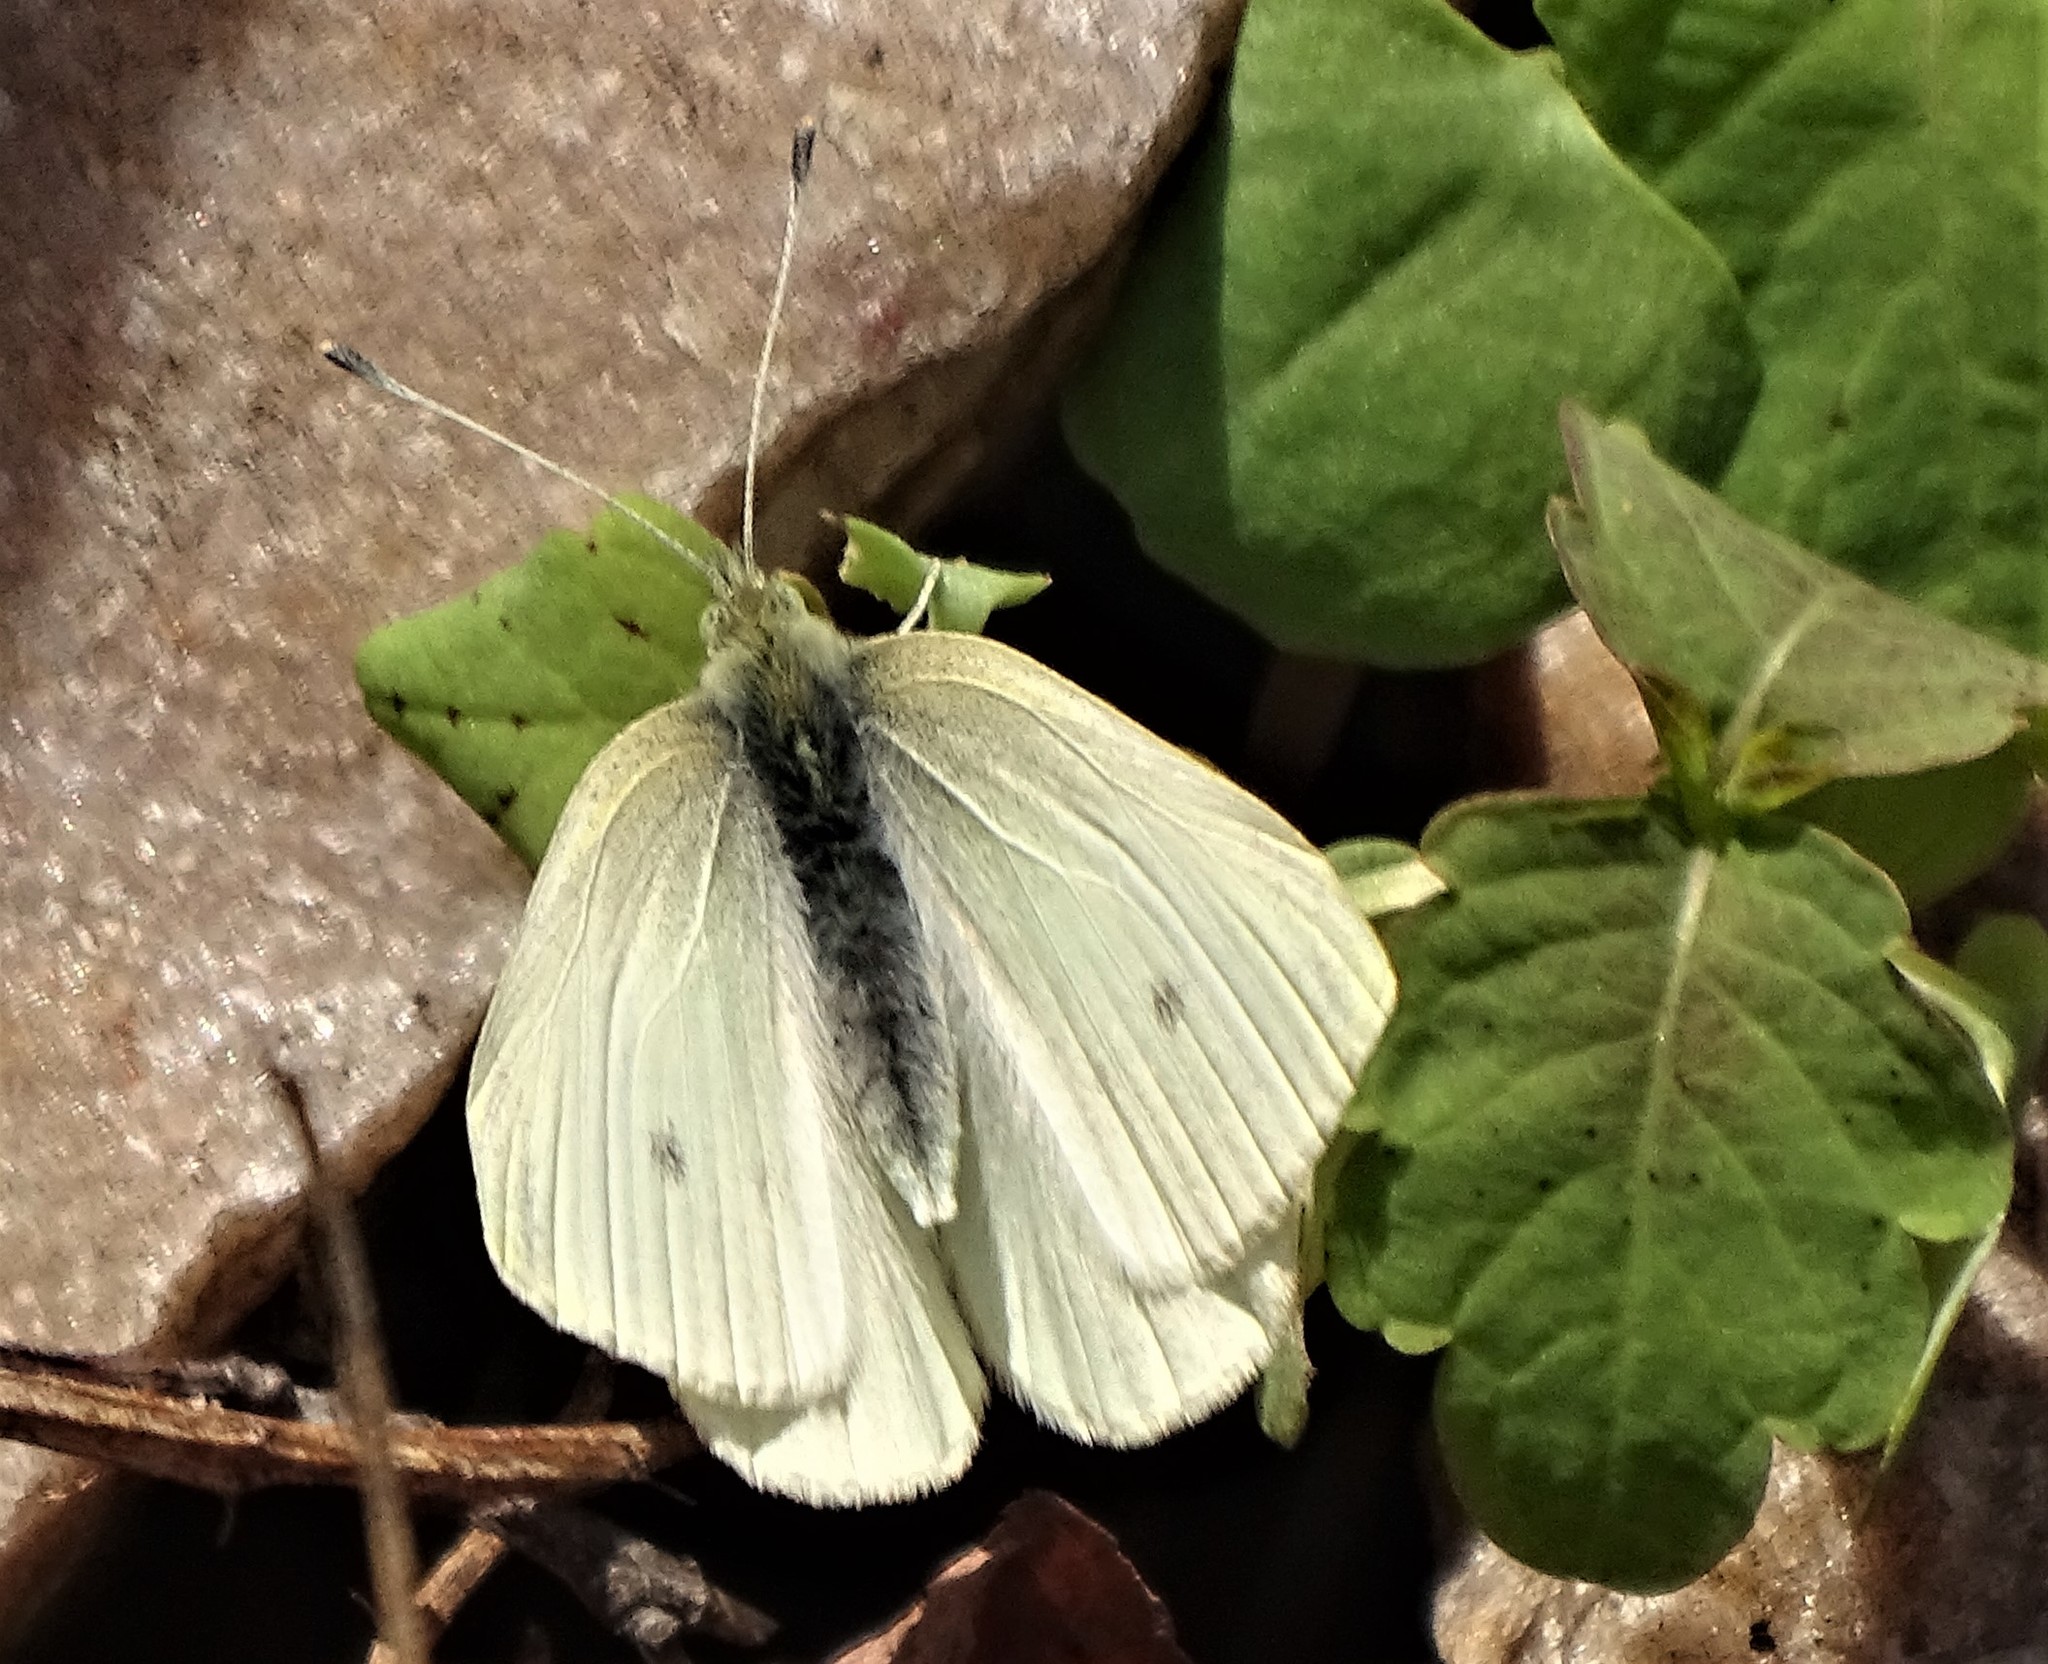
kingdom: Animalia
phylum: Arthropoda
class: Insecta
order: Lepidoptera
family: Pieridae
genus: Pieris
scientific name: Pieris rapae
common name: Small white
